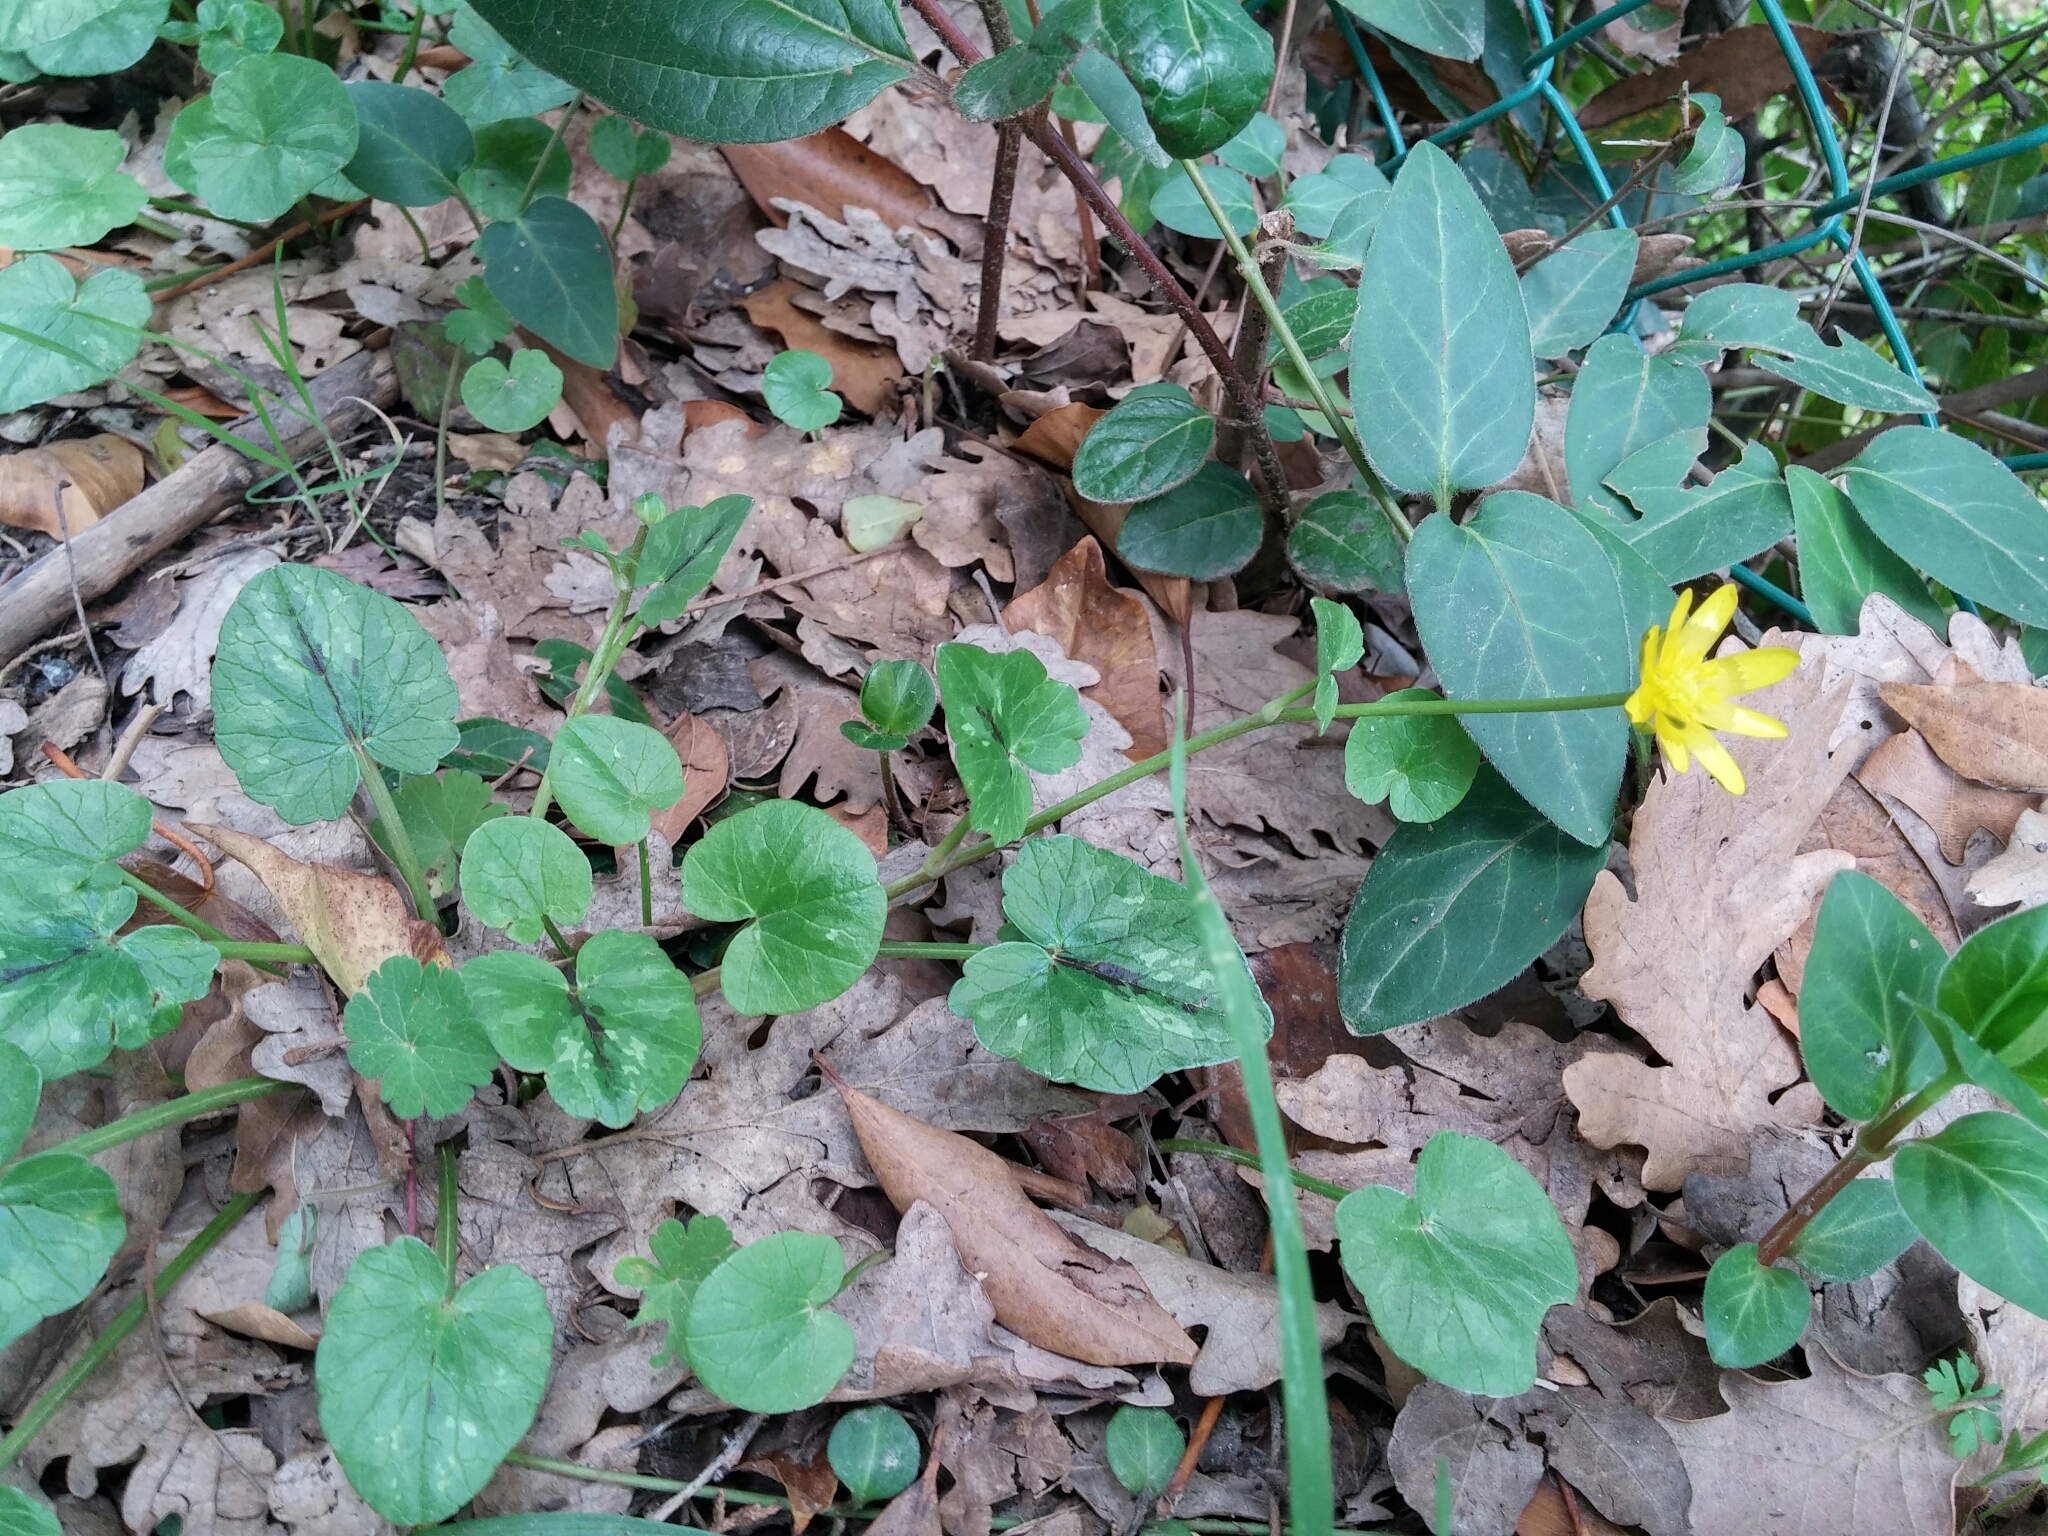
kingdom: Plantae
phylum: Tracheophyta
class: Magnoliopsida
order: Ranunculales
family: Ranunculaceae
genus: Ficaria
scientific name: Ficaria verna
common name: Lesser celandine
